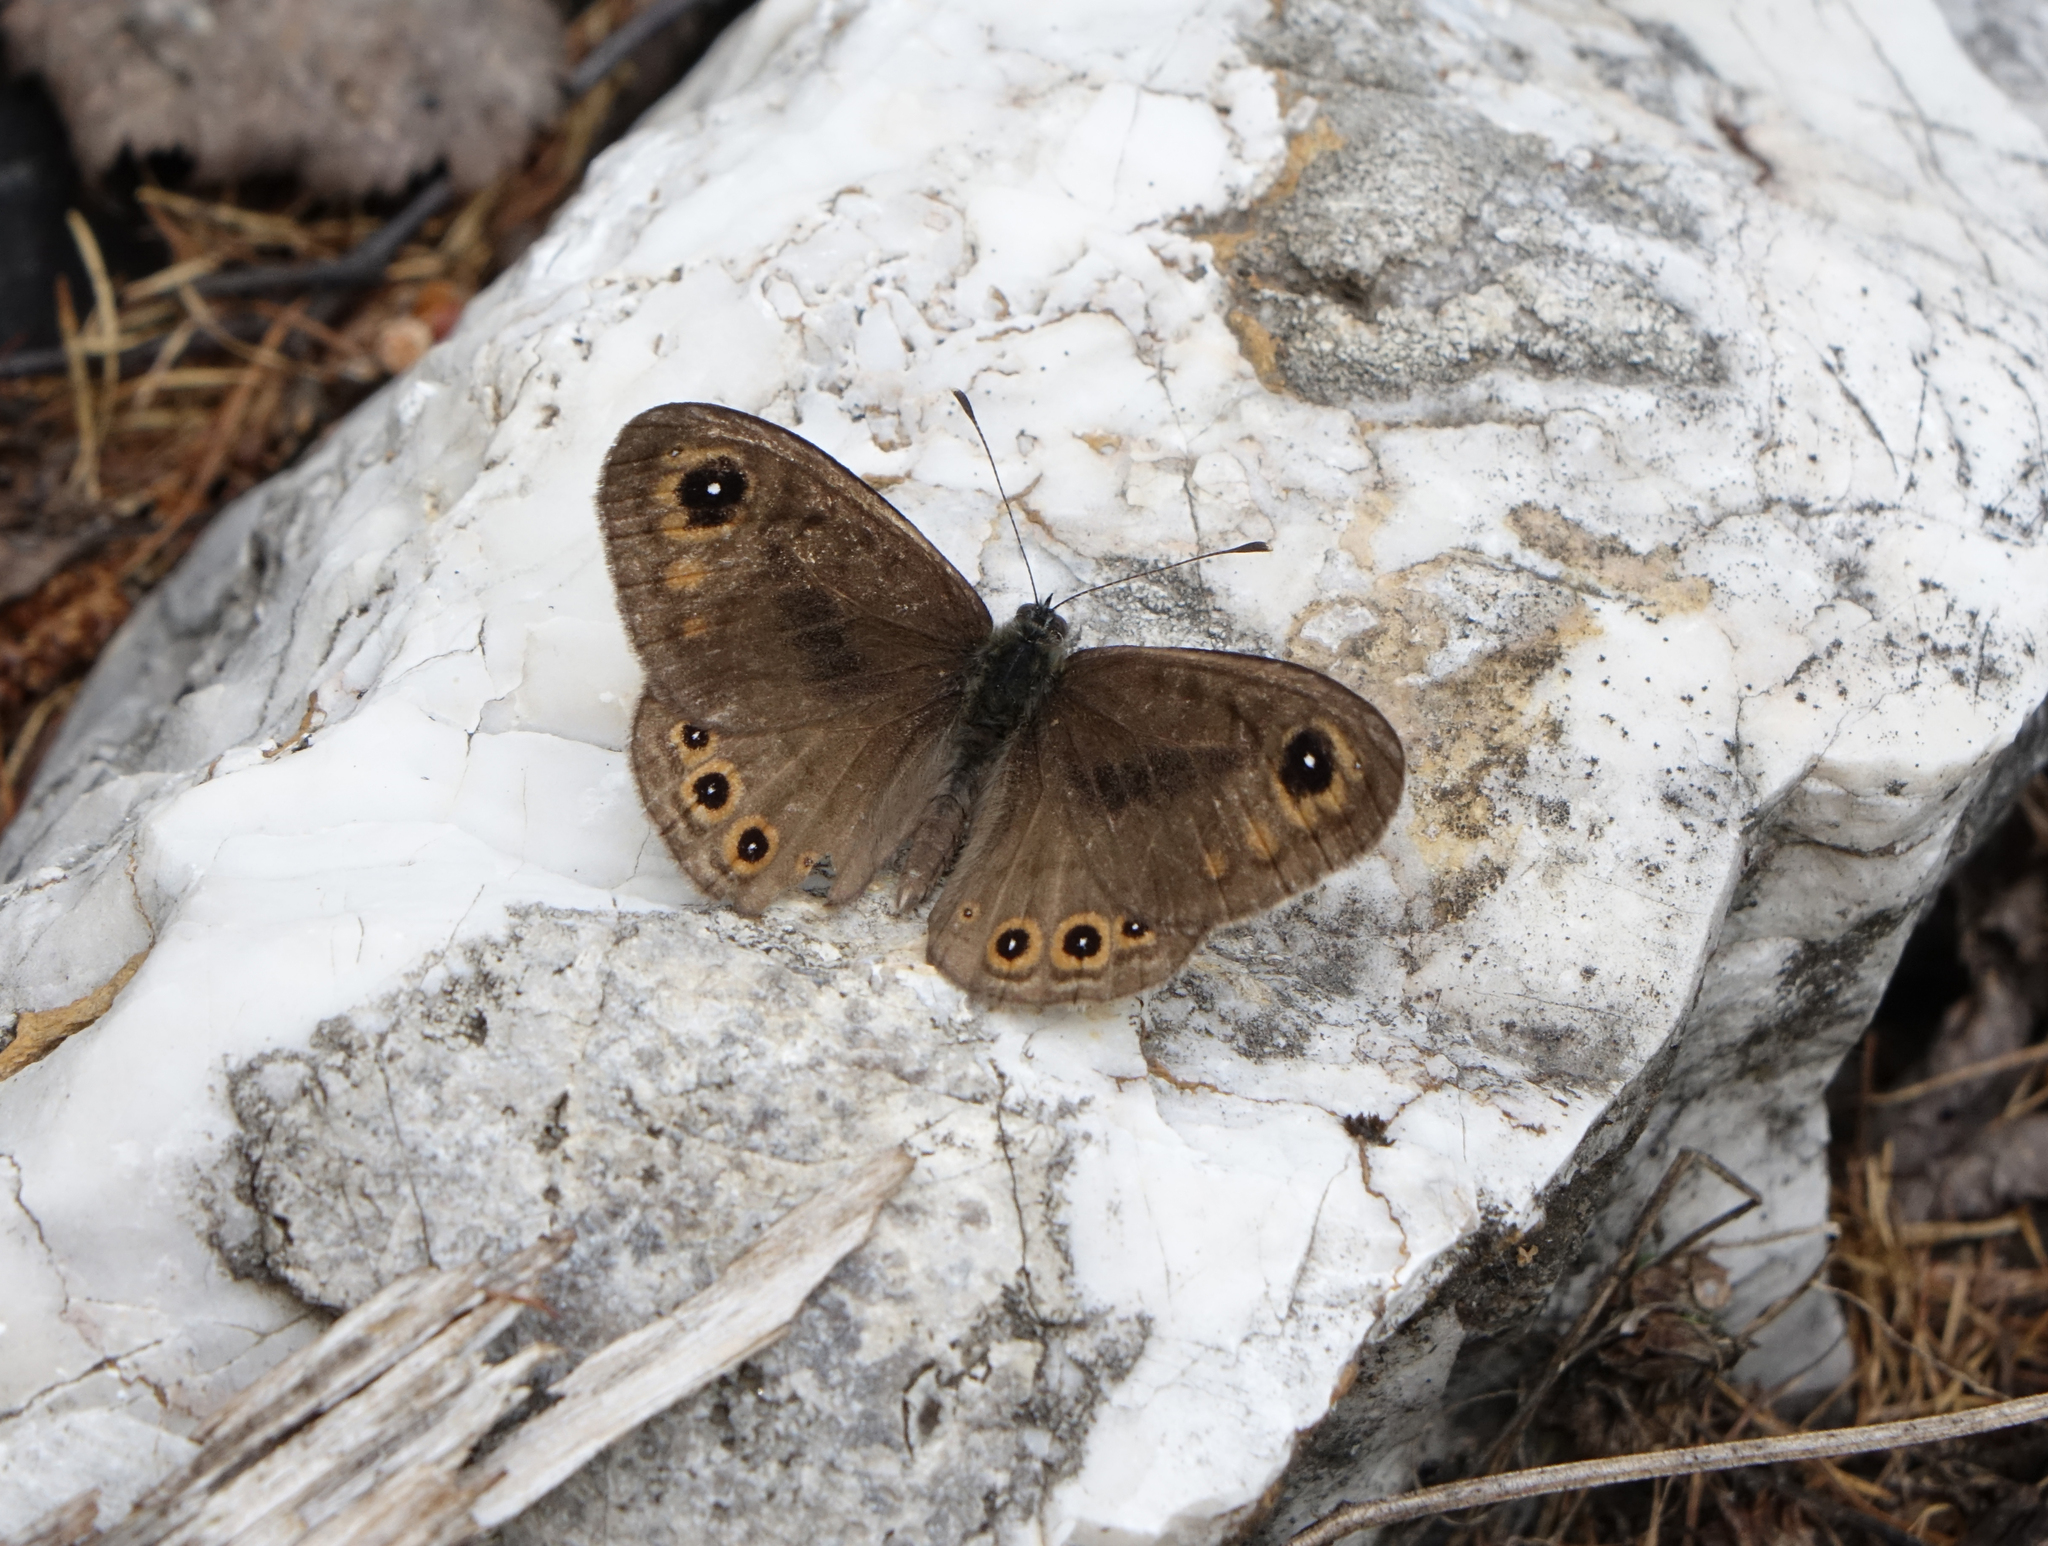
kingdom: Animalia
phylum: Arthropoda
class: Insecta
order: Lepidoptera
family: Nymphalidae
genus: Pararge
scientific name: Pararge petropolitana
